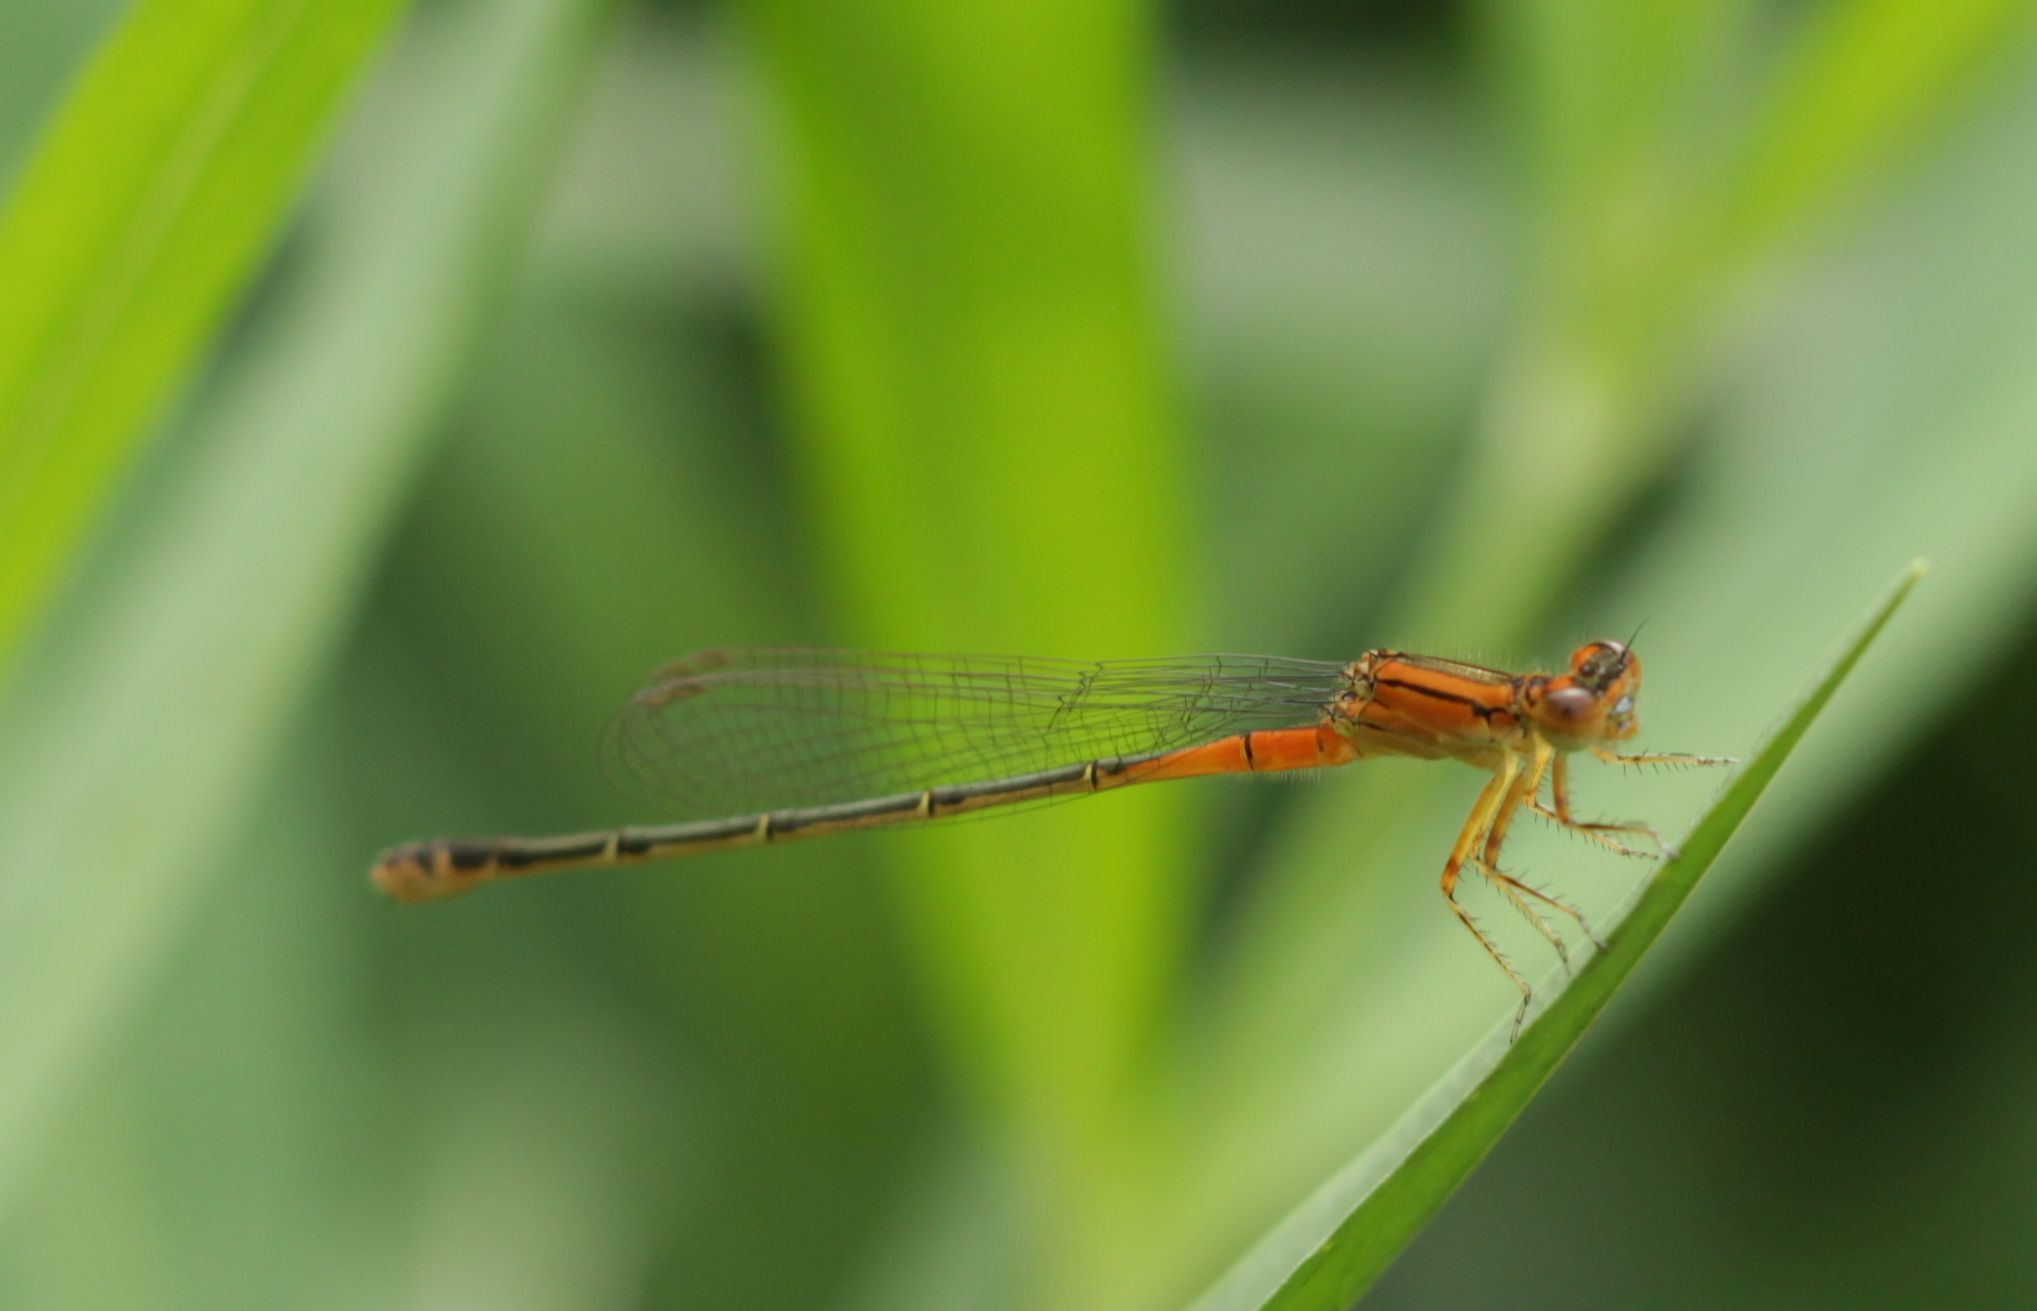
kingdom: Animalia
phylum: Arthropoda
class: Insecta
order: Odonata
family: Coenagrionidae
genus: Ischnura
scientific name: Ischnura verticalis
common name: Eastern forktail
